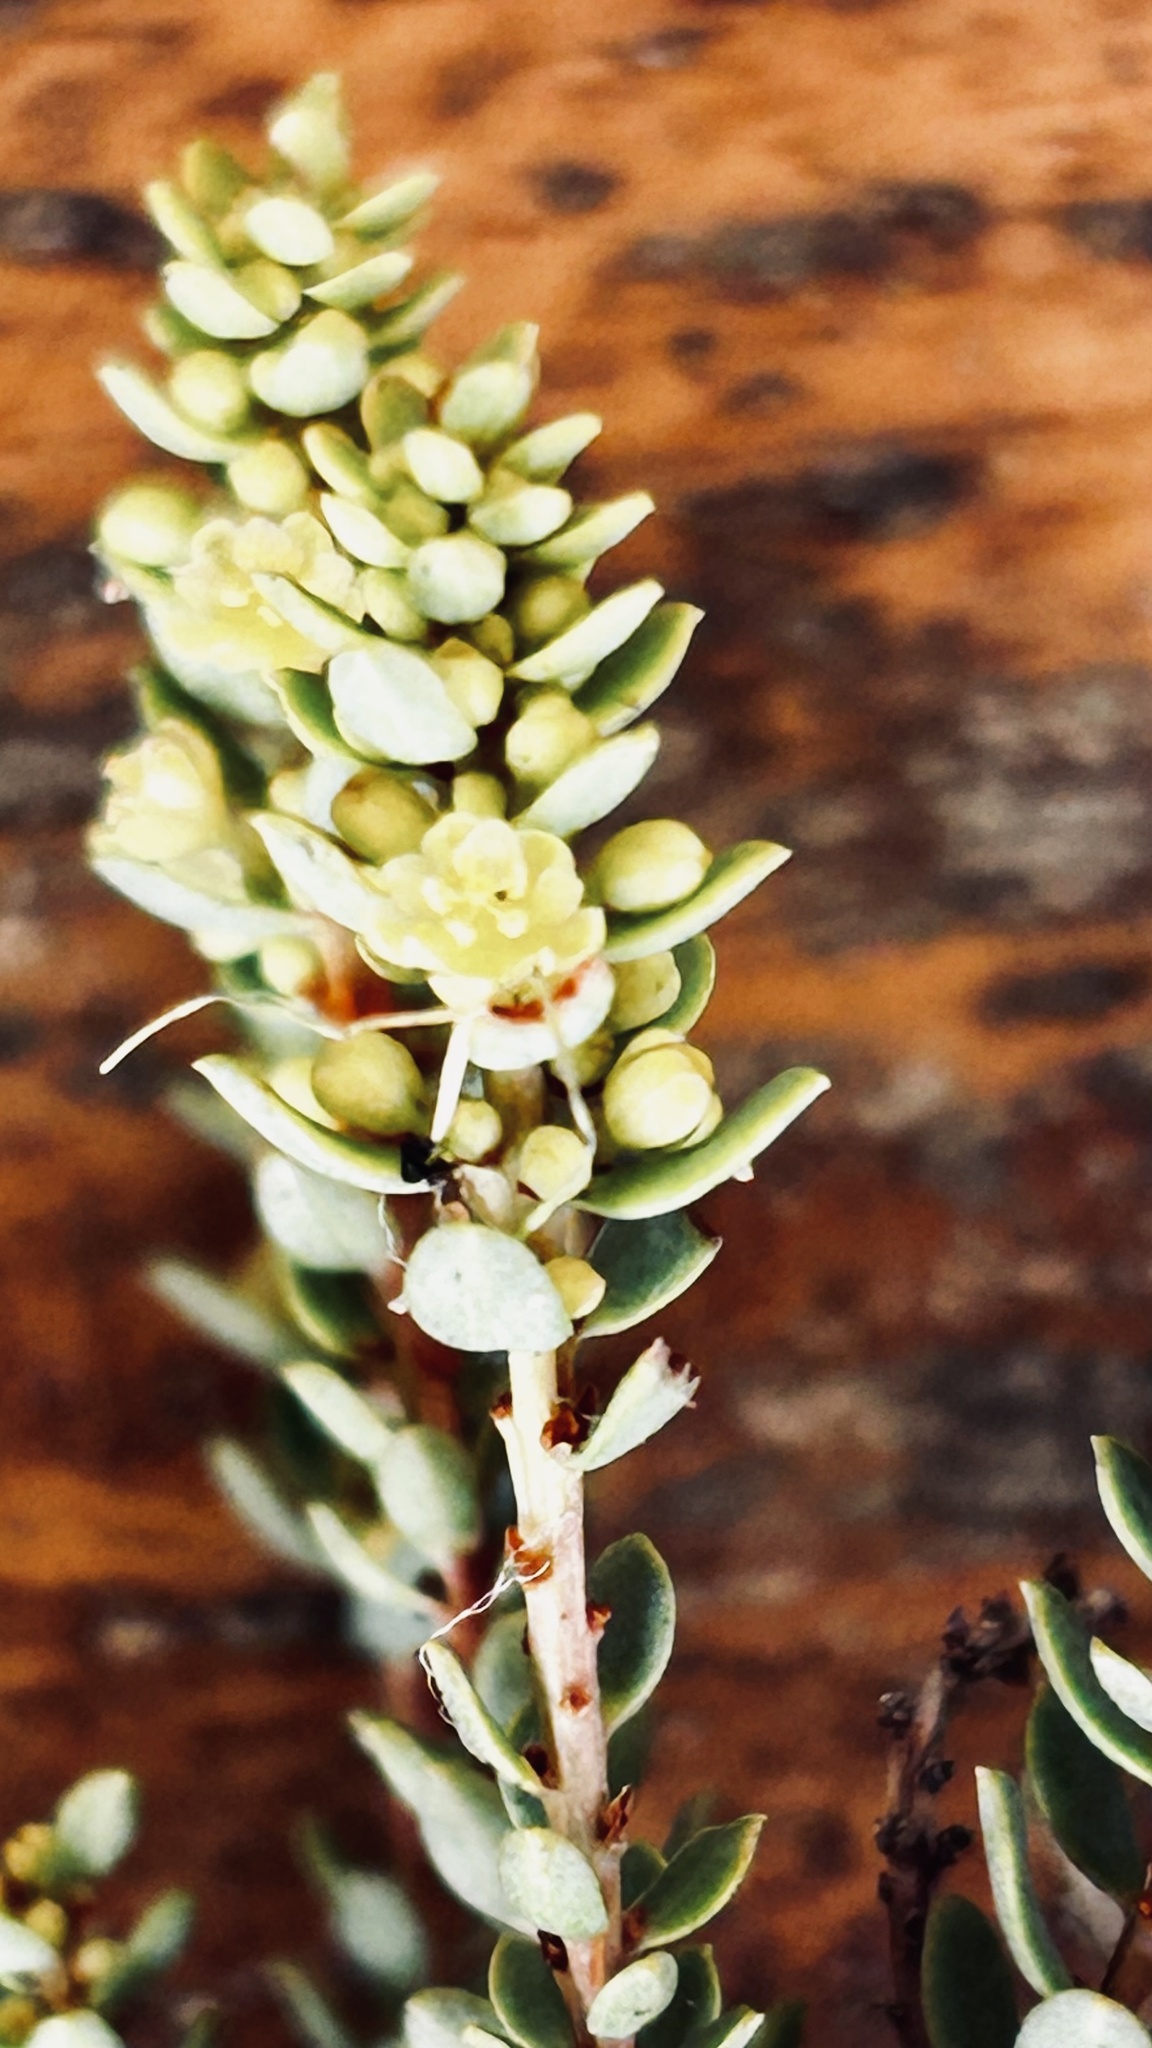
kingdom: Plantae
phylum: Tracheophyta
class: Magnoliopsida
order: Malpighiales
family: Peraceae
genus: Clutia
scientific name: Clutia laxa
